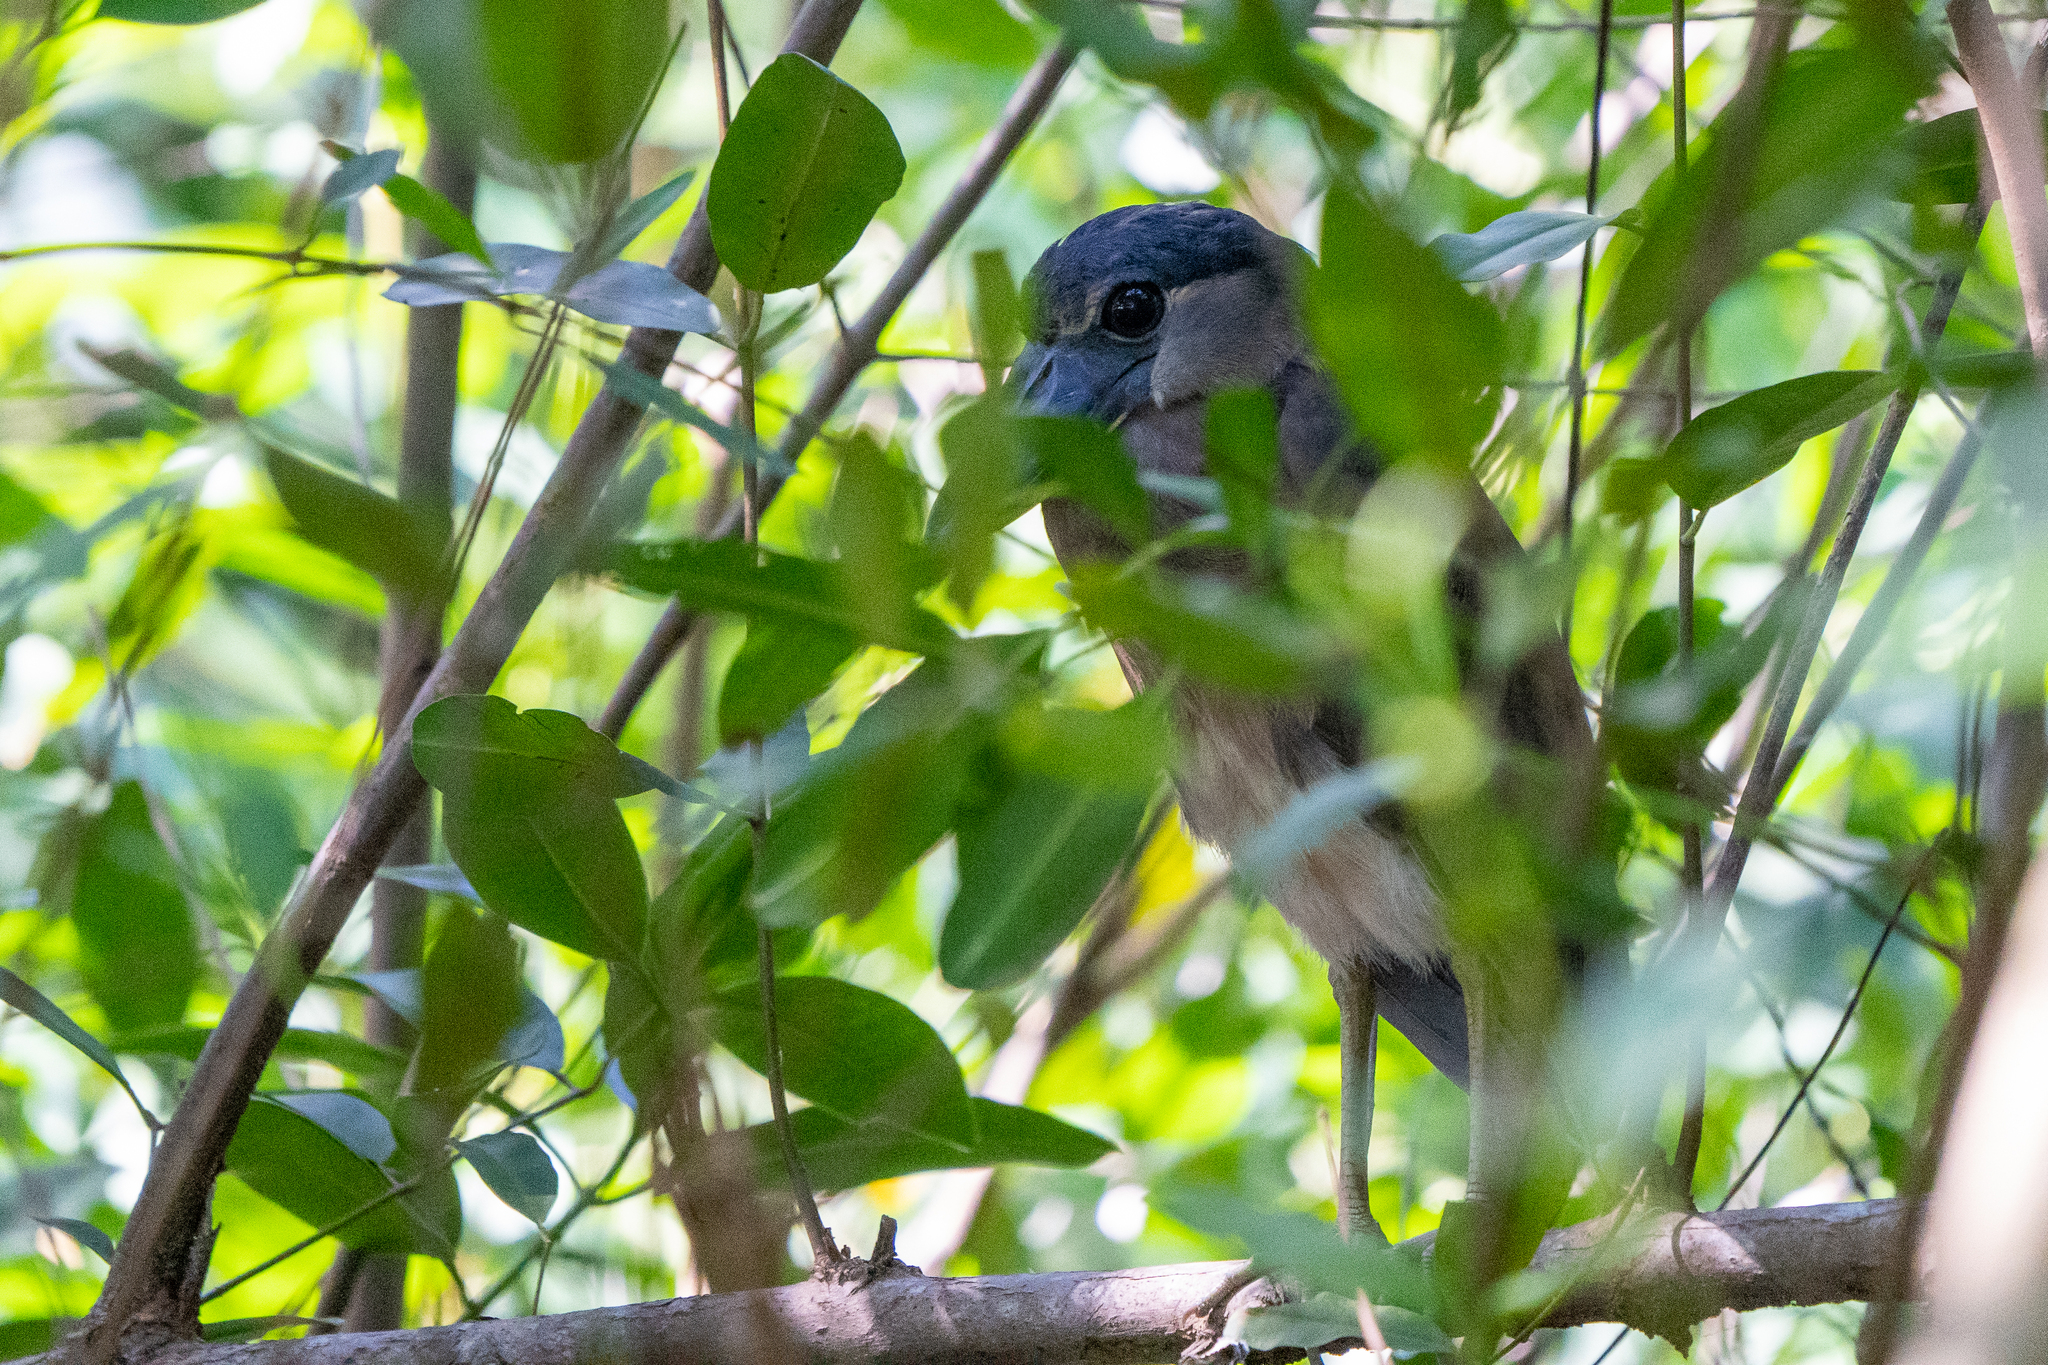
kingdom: Animalia
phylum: Chordata
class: Aves
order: Pelecaniformes
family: Ardeidae
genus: Cochlearius
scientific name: Cochlearius cochlearius
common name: Boat-billed heron
